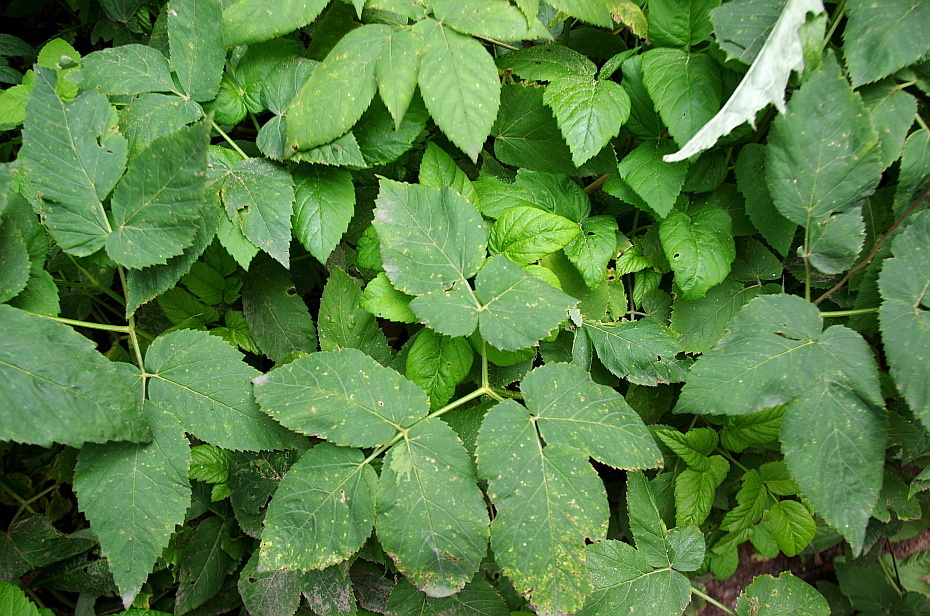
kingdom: Plantae
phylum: Tracheophyta
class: Magnoliopsida
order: Apiales
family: Apiaceae
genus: Aegopodium
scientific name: Aegopodium podagraria
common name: Ground-elder
